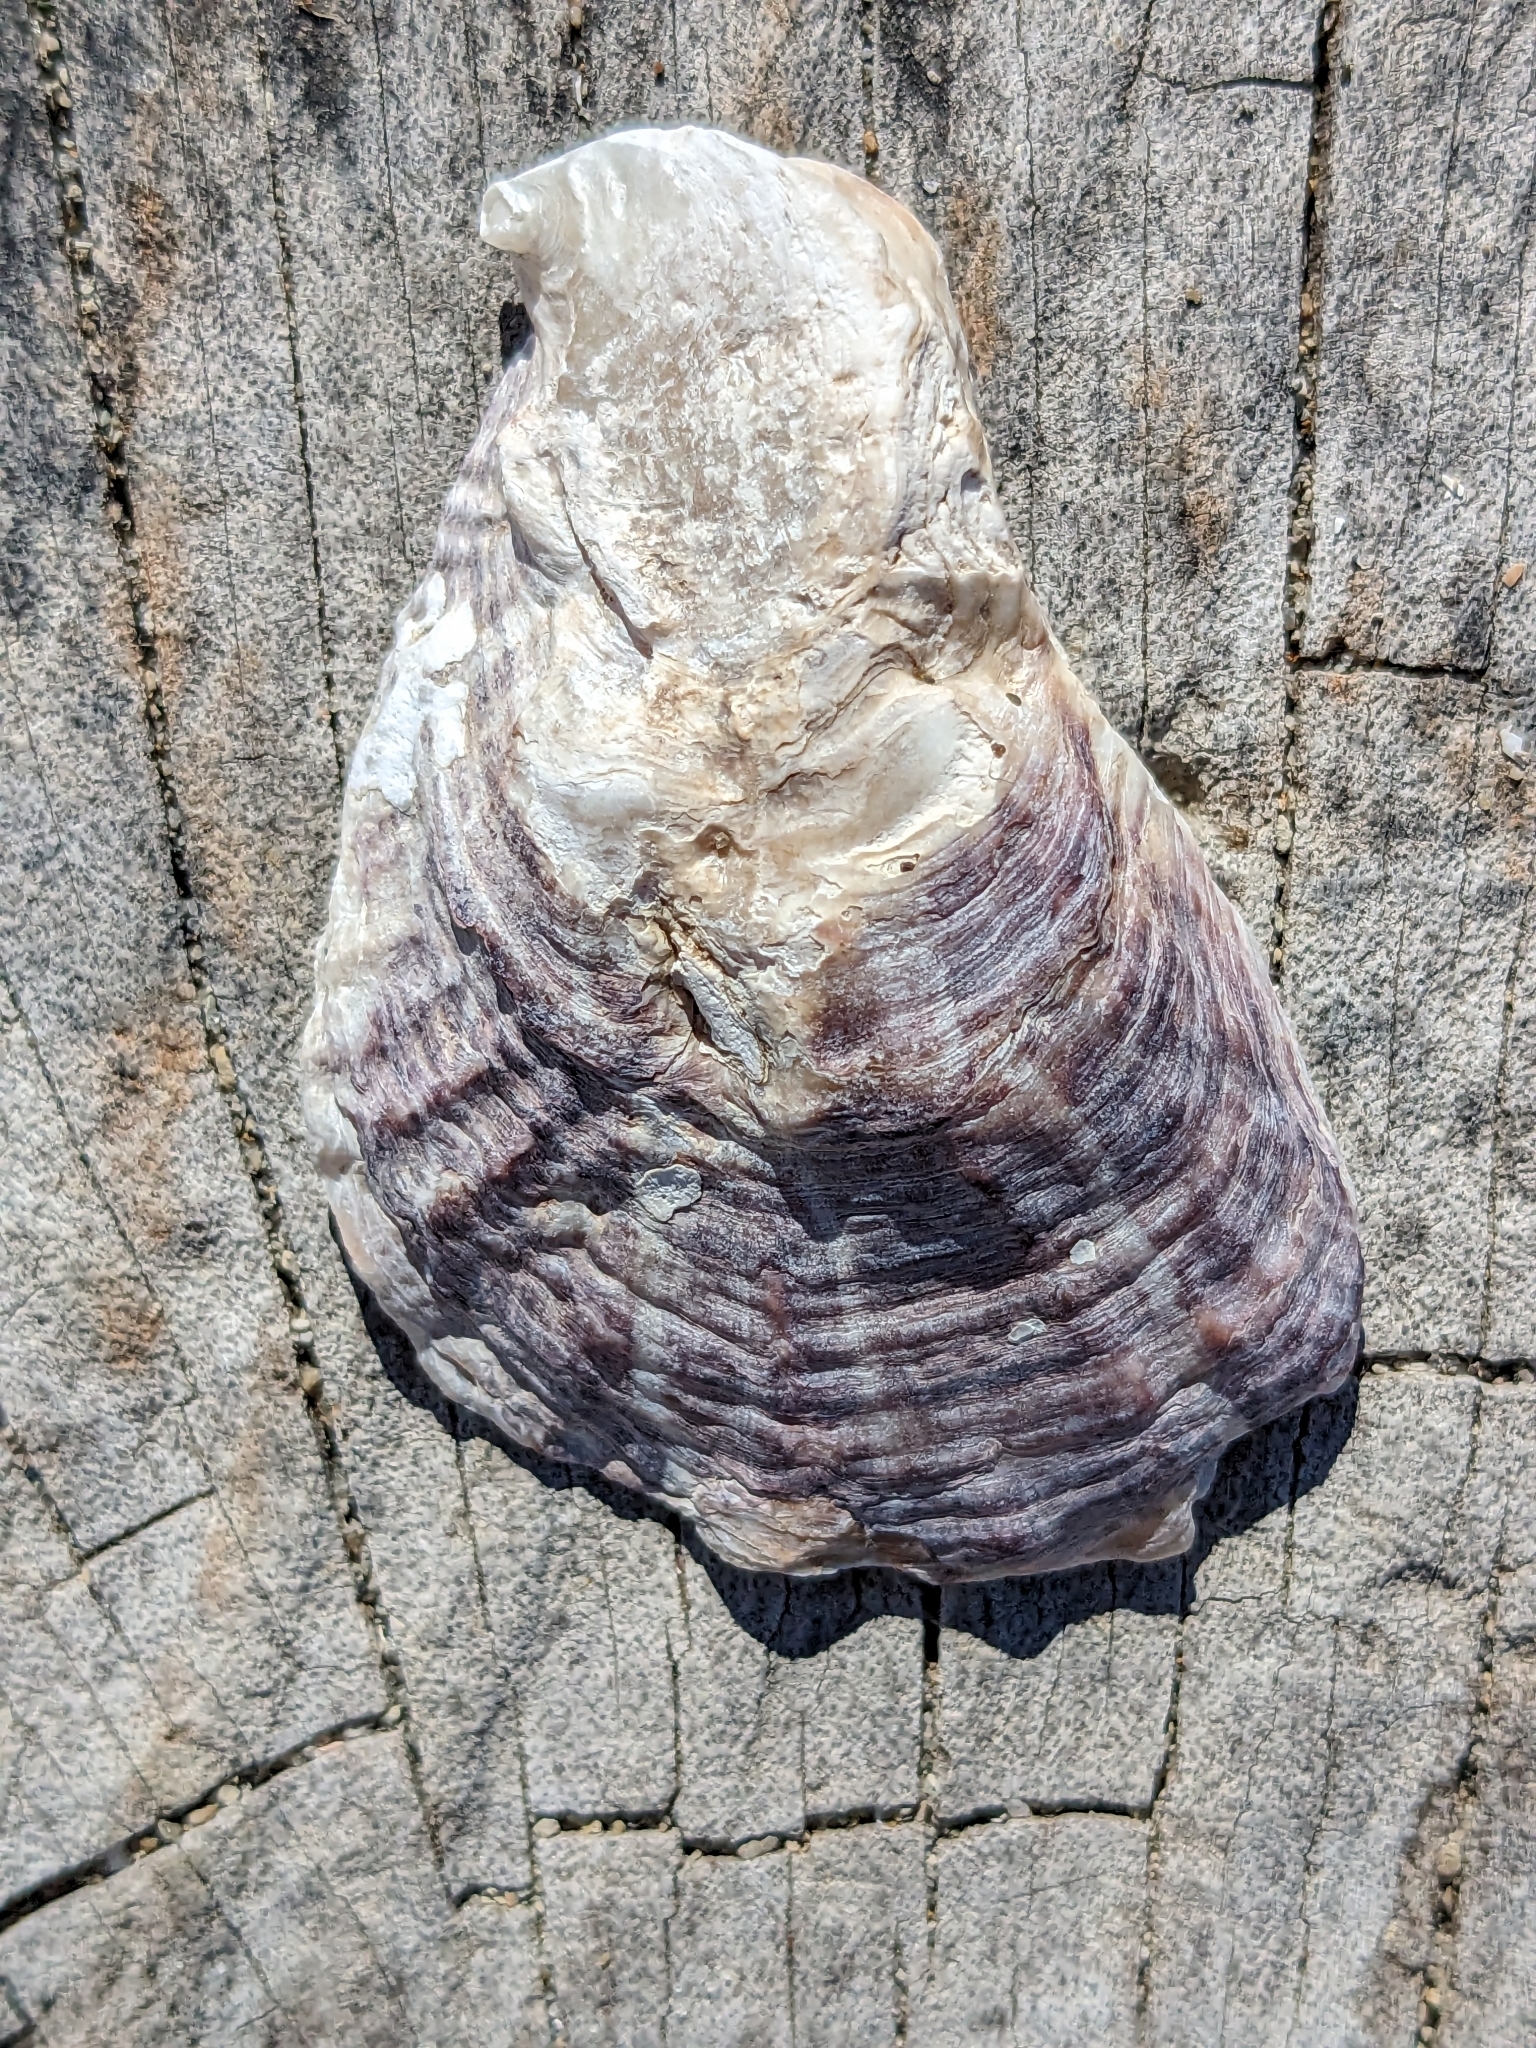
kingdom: Animalia
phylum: Mollusca
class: Bivalvia
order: Ostreida
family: Ostreidae
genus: Ostrea
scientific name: Ostrea lurida
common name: Olympia flat oyster
